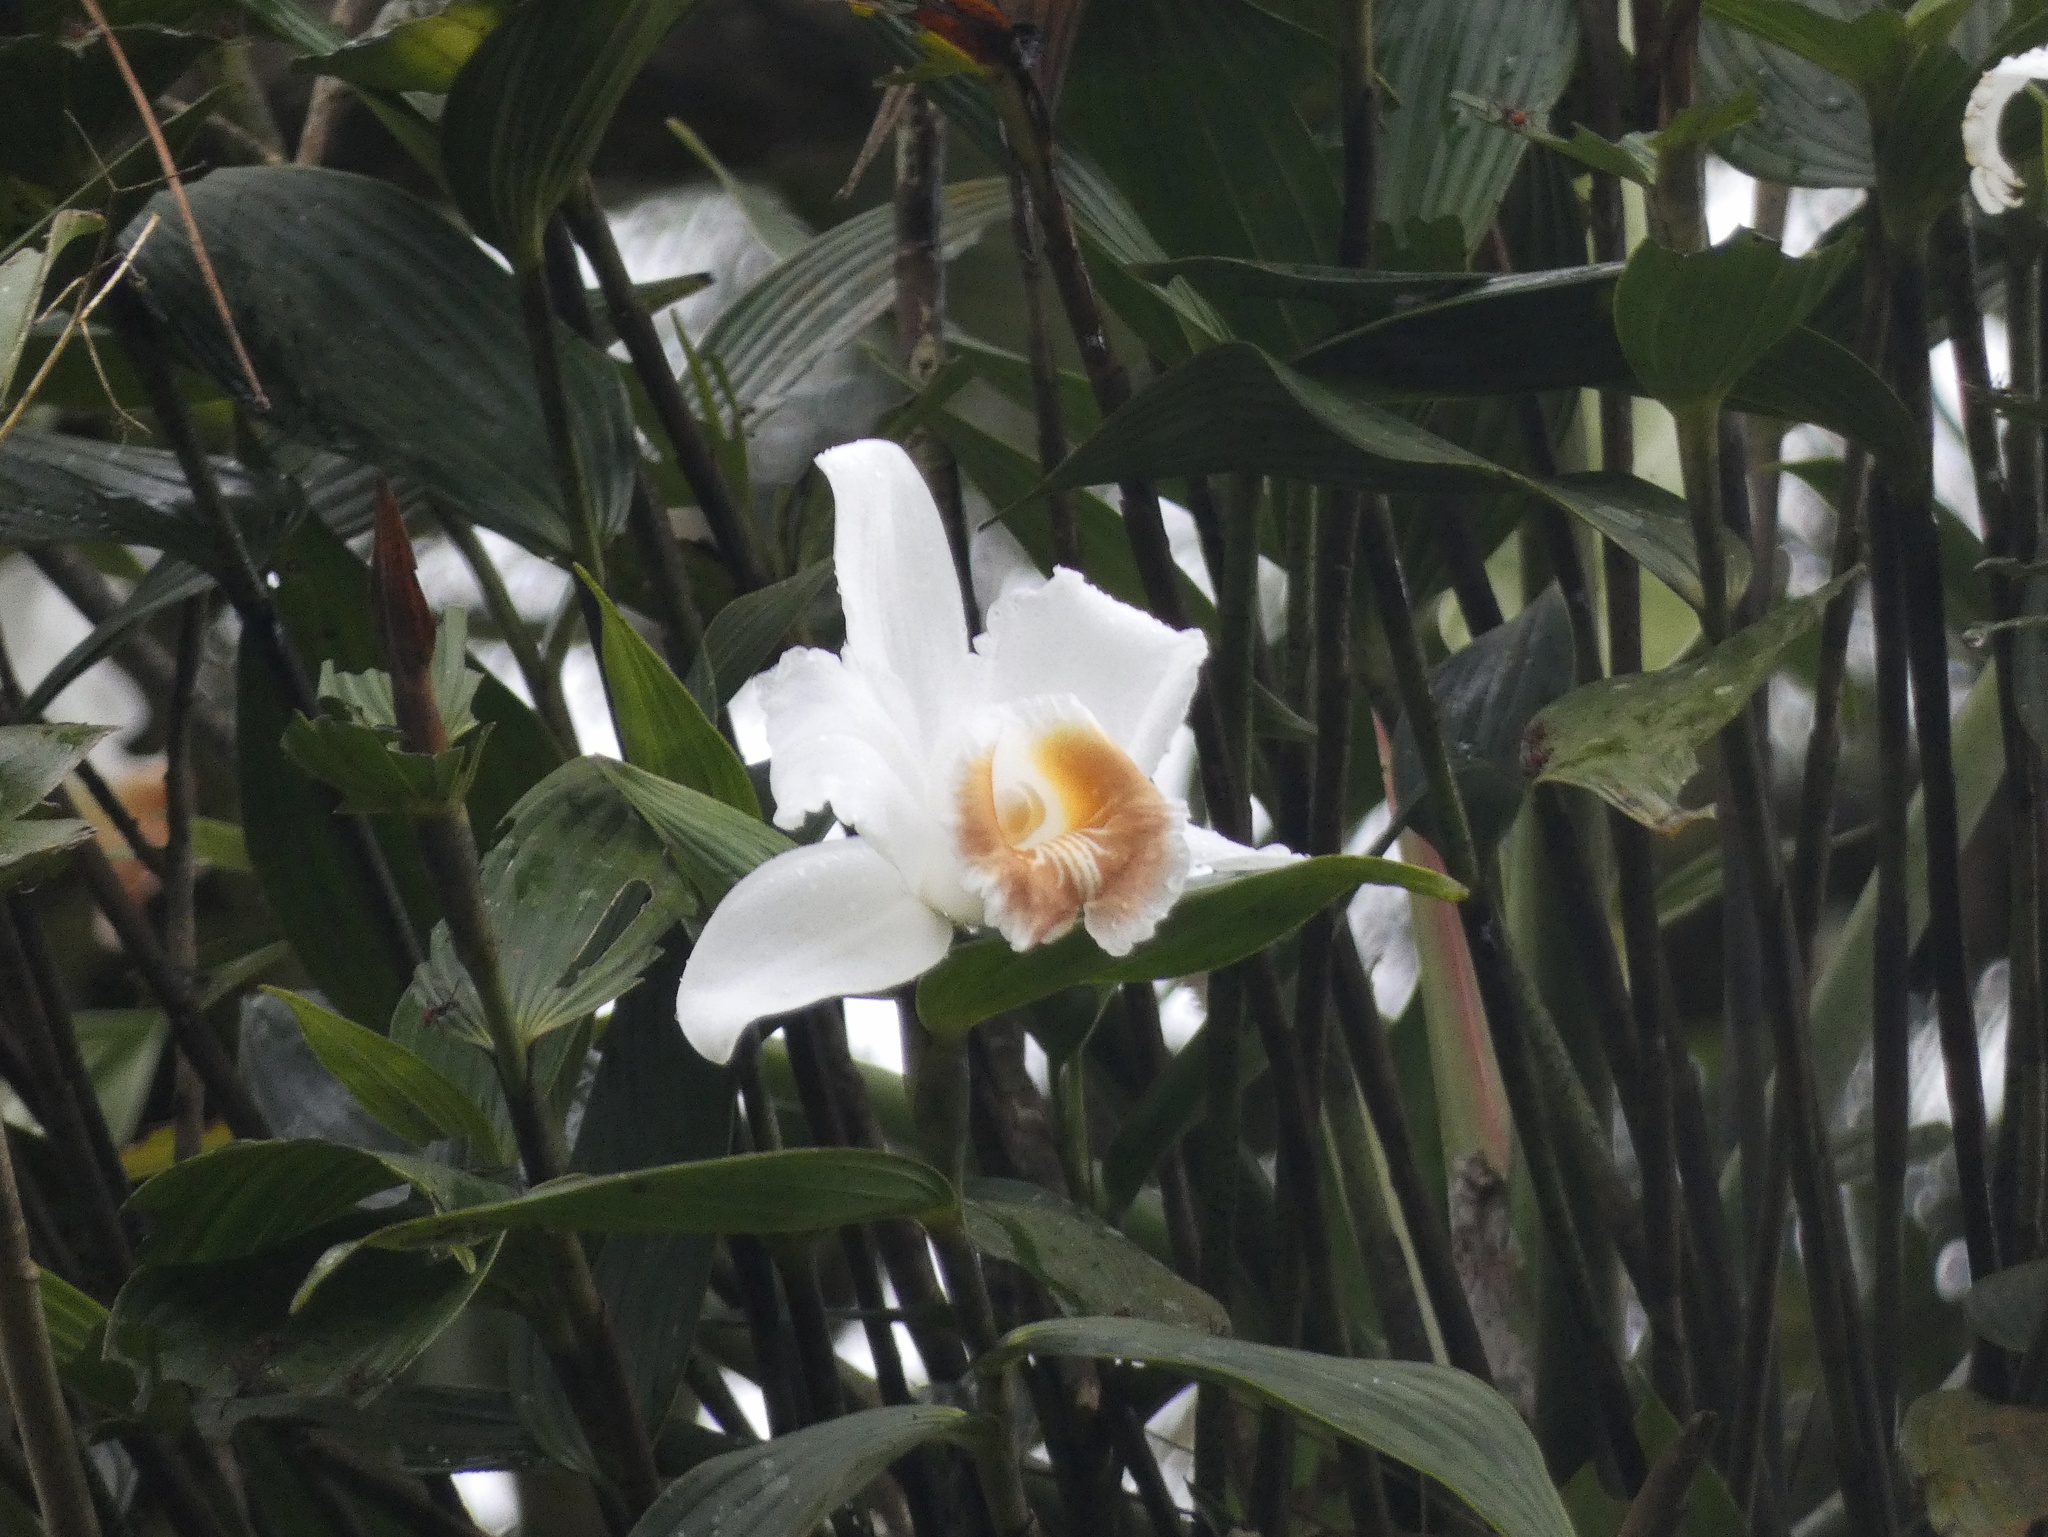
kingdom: Plantae
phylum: Tracheophyta
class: Liliopsida
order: Asparagales
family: Orchidaceae
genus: Sobralia
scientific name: Sobralia chrysostoma
